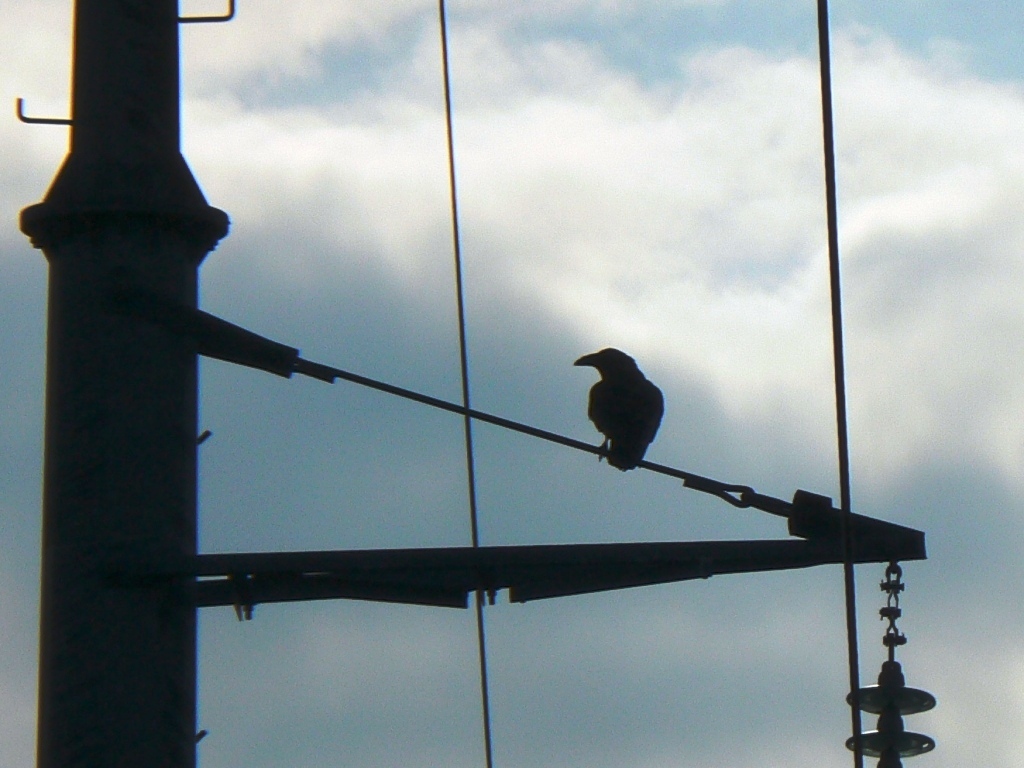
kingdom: Animalia
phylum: Chordata
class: Aves
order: Passeriformes
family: Corvidae
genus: Corvus
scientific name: Corvus corax
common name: Common raven
